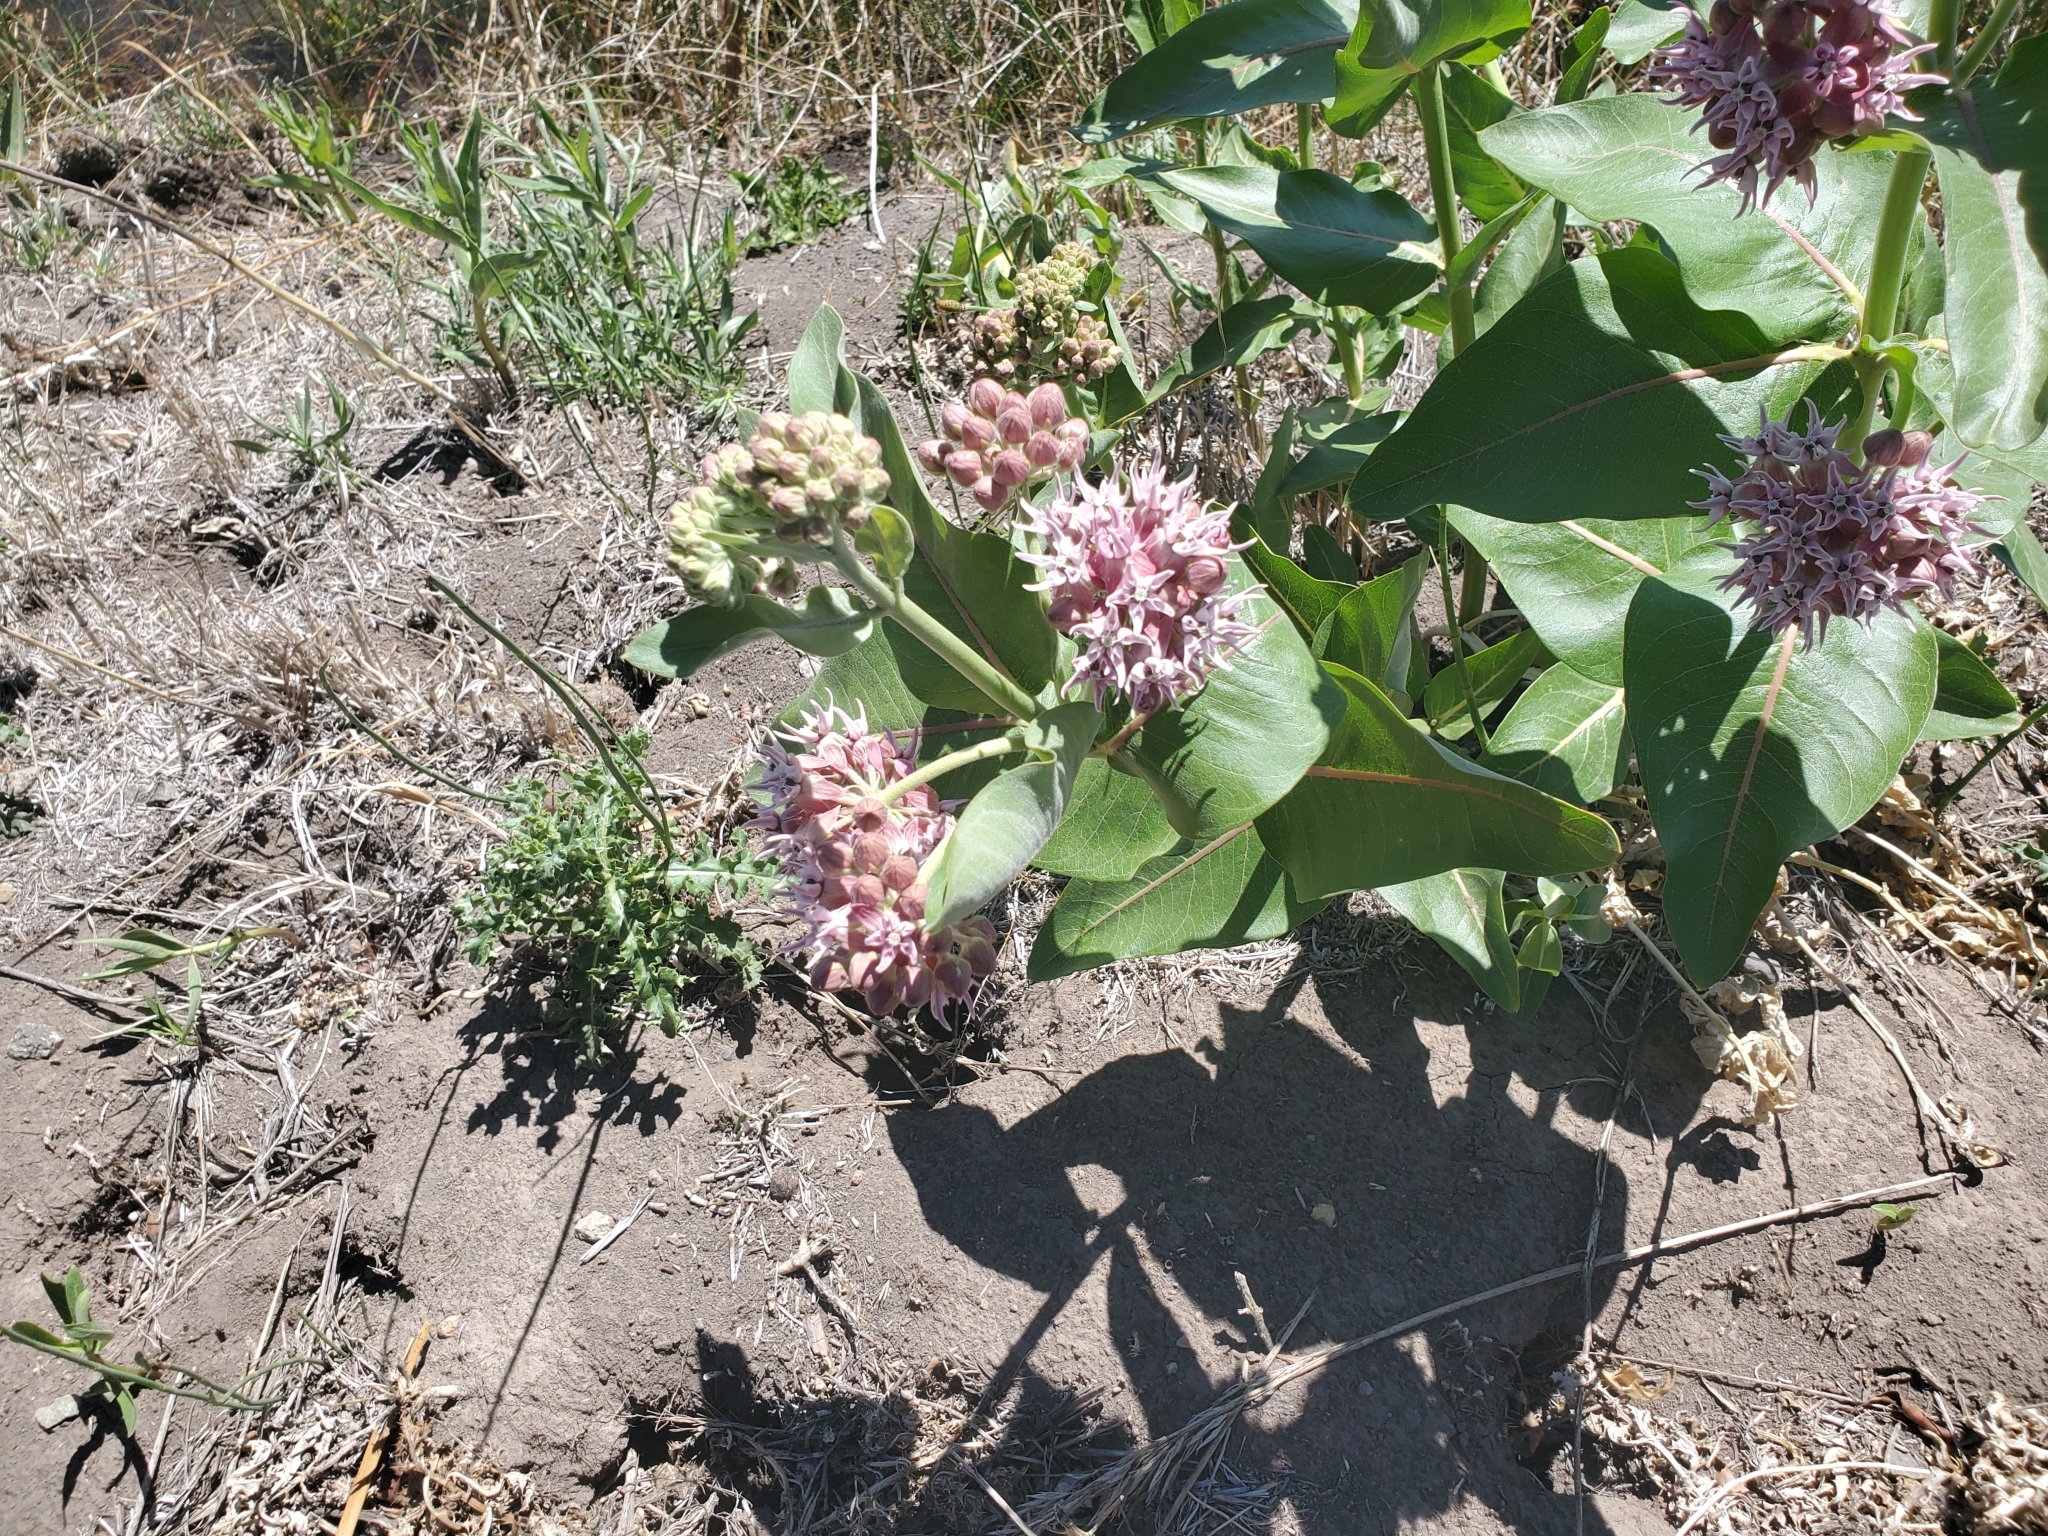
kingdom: Plantae
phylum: Tracheophyta
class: Magnoliopsida
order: Gentianales
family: Apocynaceae
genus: Asclepias
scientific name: Asclepias speciosa
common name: Showy milkweed
